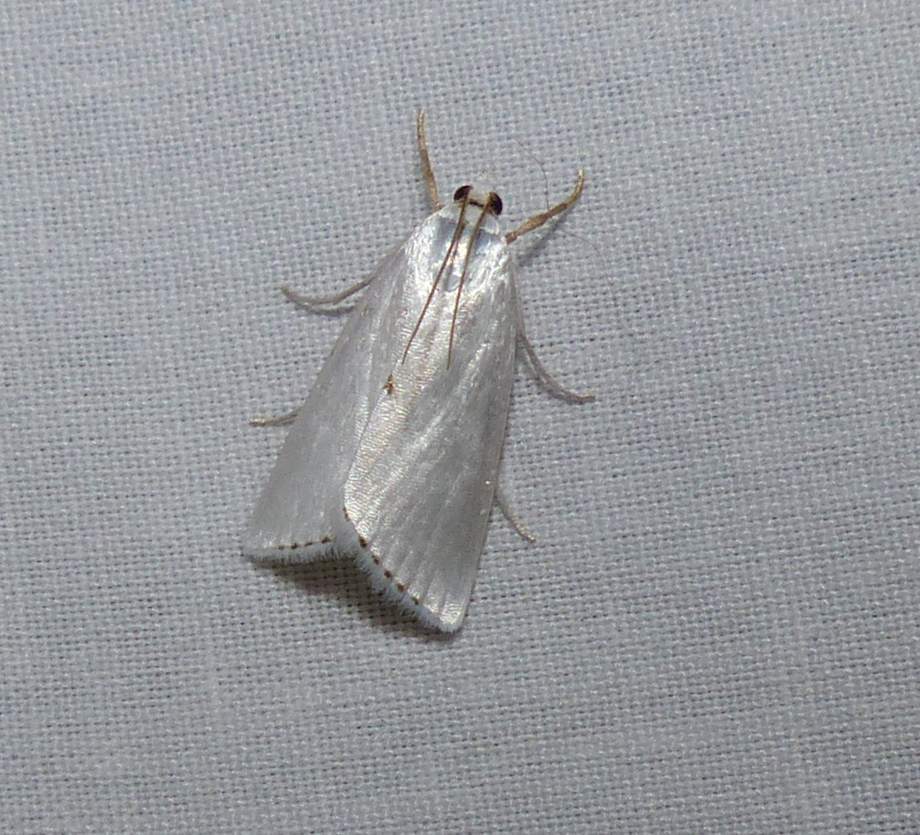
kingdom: Animalia
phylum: Arthropoda
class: Insecta
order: Lepidoptera
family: Crambidae
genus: Argyria
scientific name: Argyria nivalis
